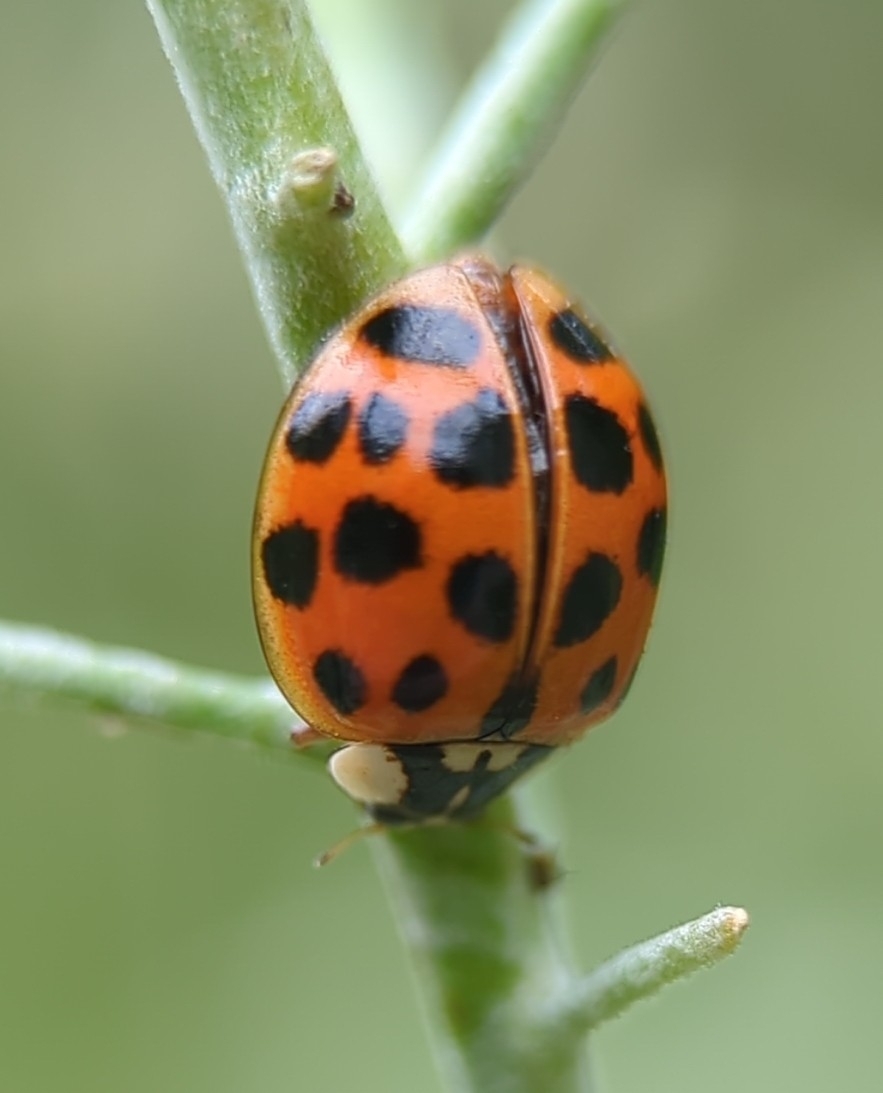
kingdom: Animalia
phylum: Arthropoda
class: Insecta
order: Coleoptera
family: Coccinellidae
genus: Harmonia
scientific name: Harmonia axyridis
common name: Harlequin ladybird
